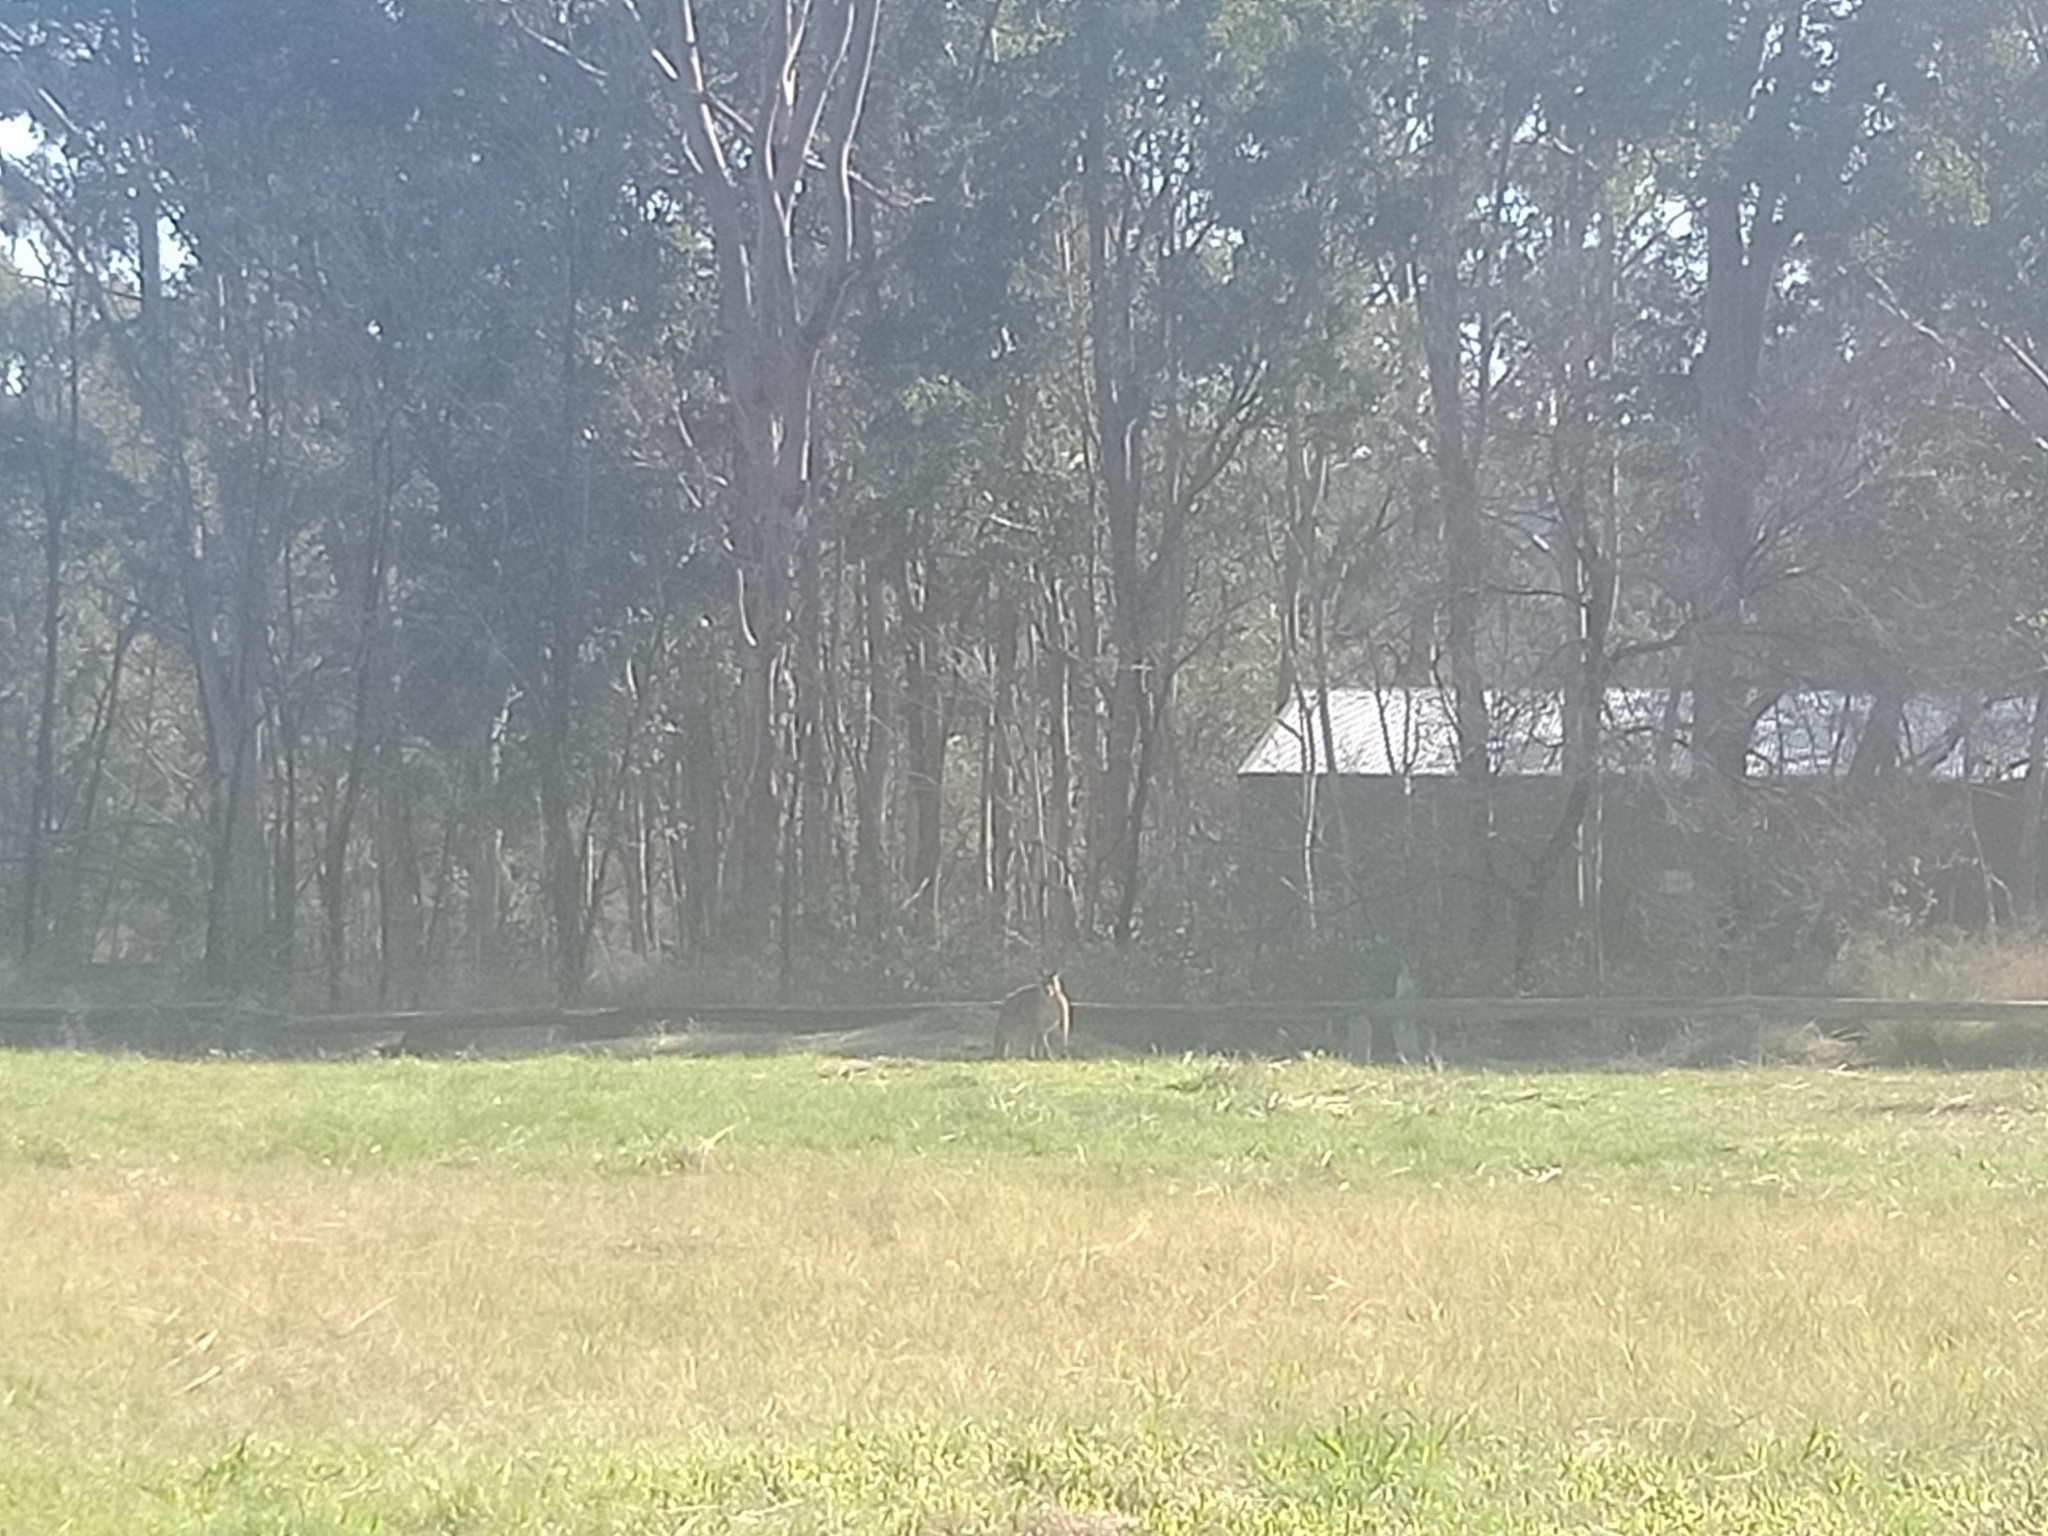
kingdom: Animalia
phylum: Chordata
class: Mammalia
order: Diprotodontia
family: Macropodidae
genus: Macropus
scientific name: Macropus giganteus
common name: Eastern grey kangaroo
